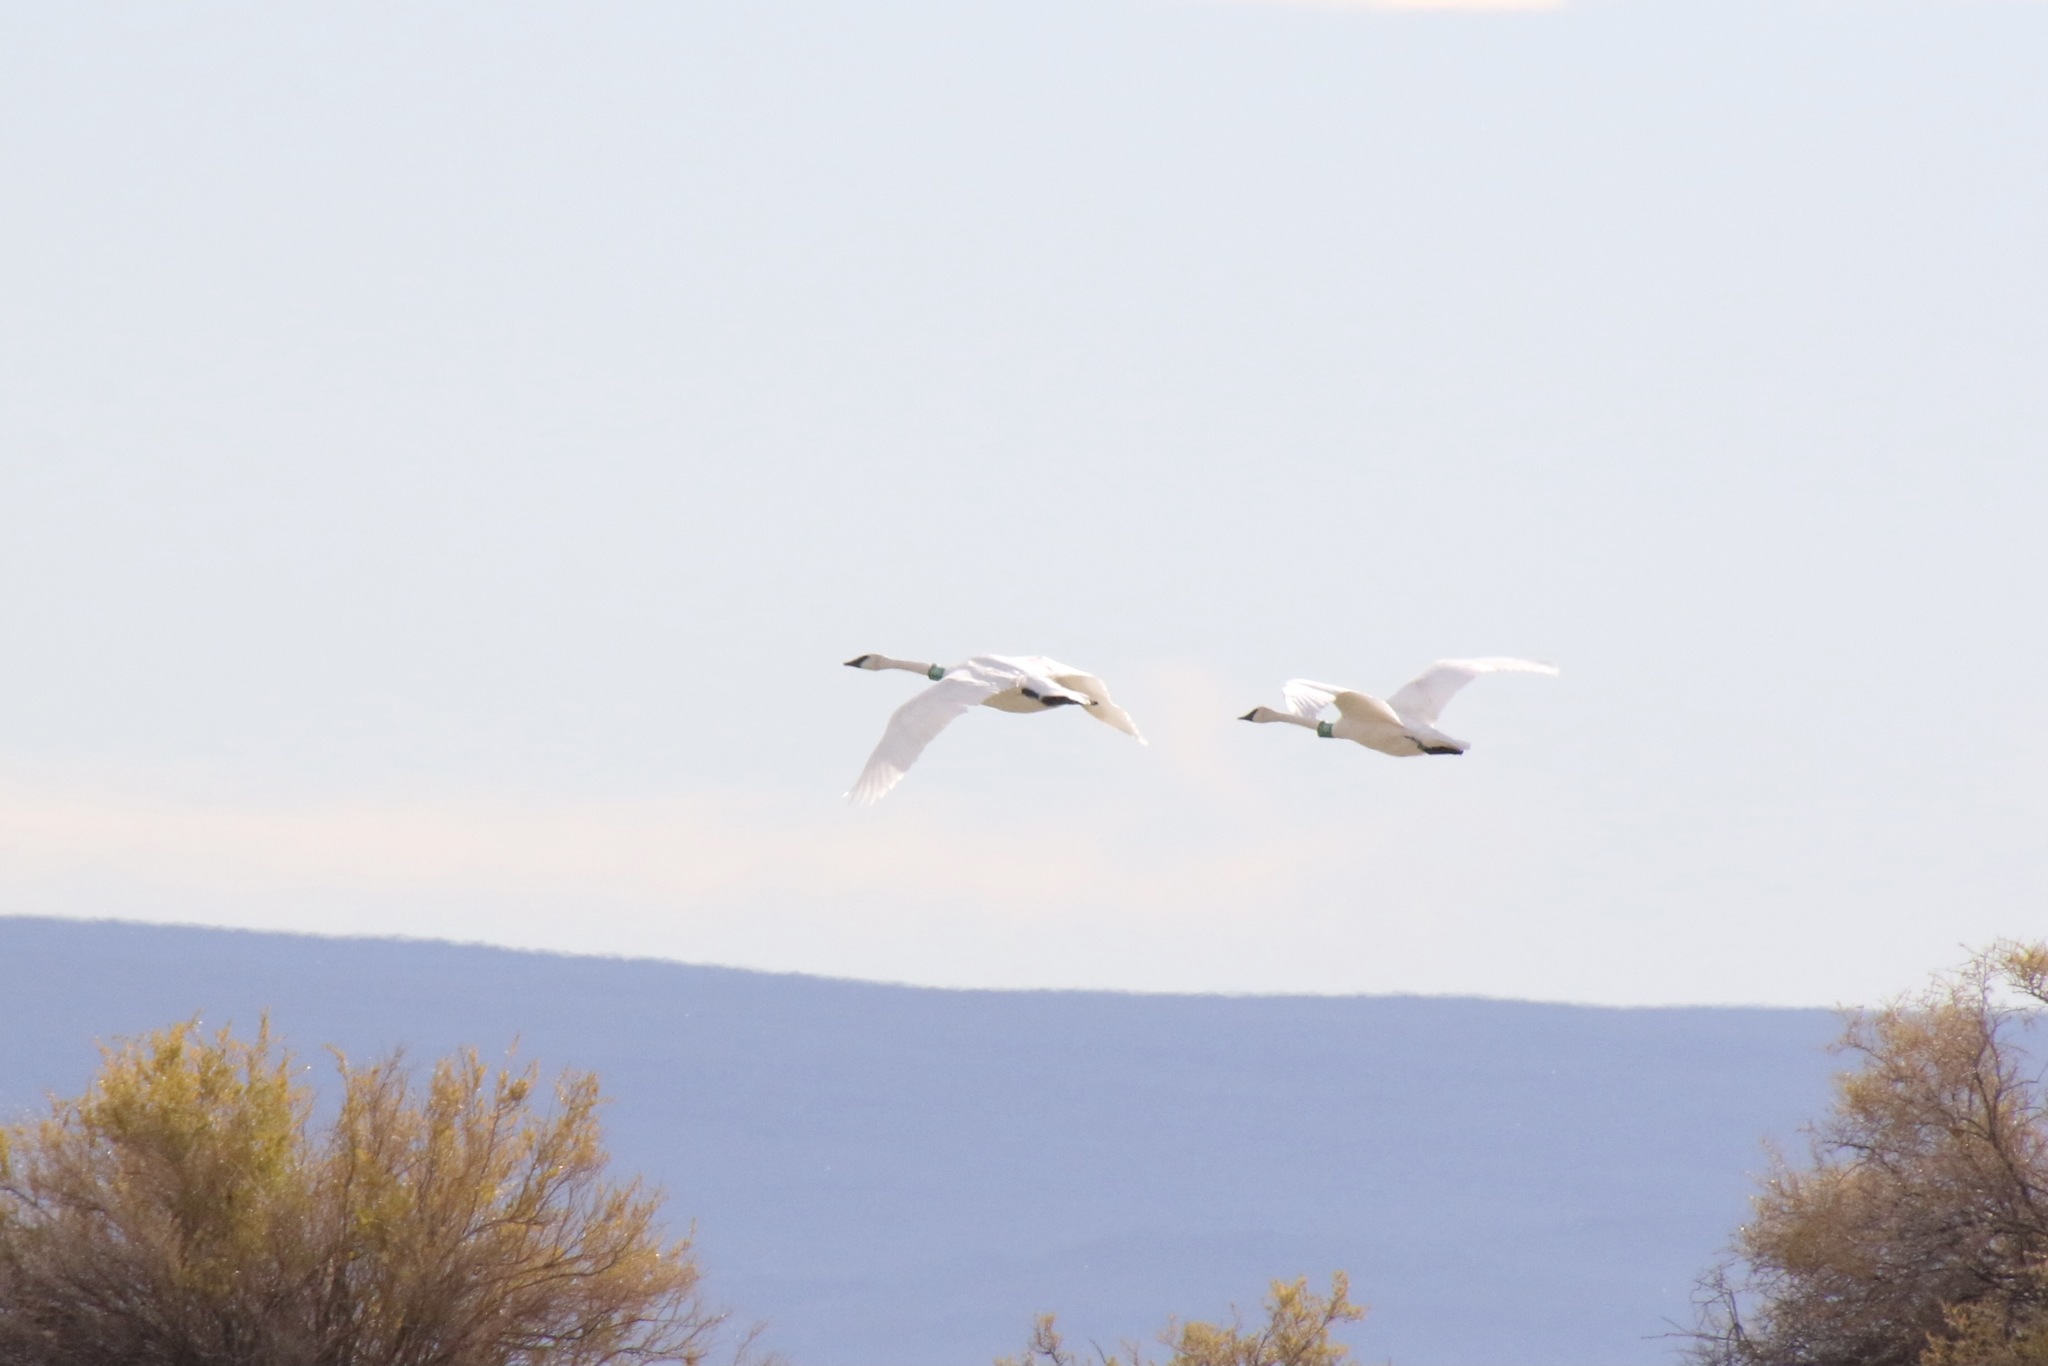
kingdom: Animalia
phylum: Chordata
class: Aves
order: Anseriformes
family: Anatidae
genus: Cygnus
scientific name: Cygnus buccinator
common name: Trumpeter swan
